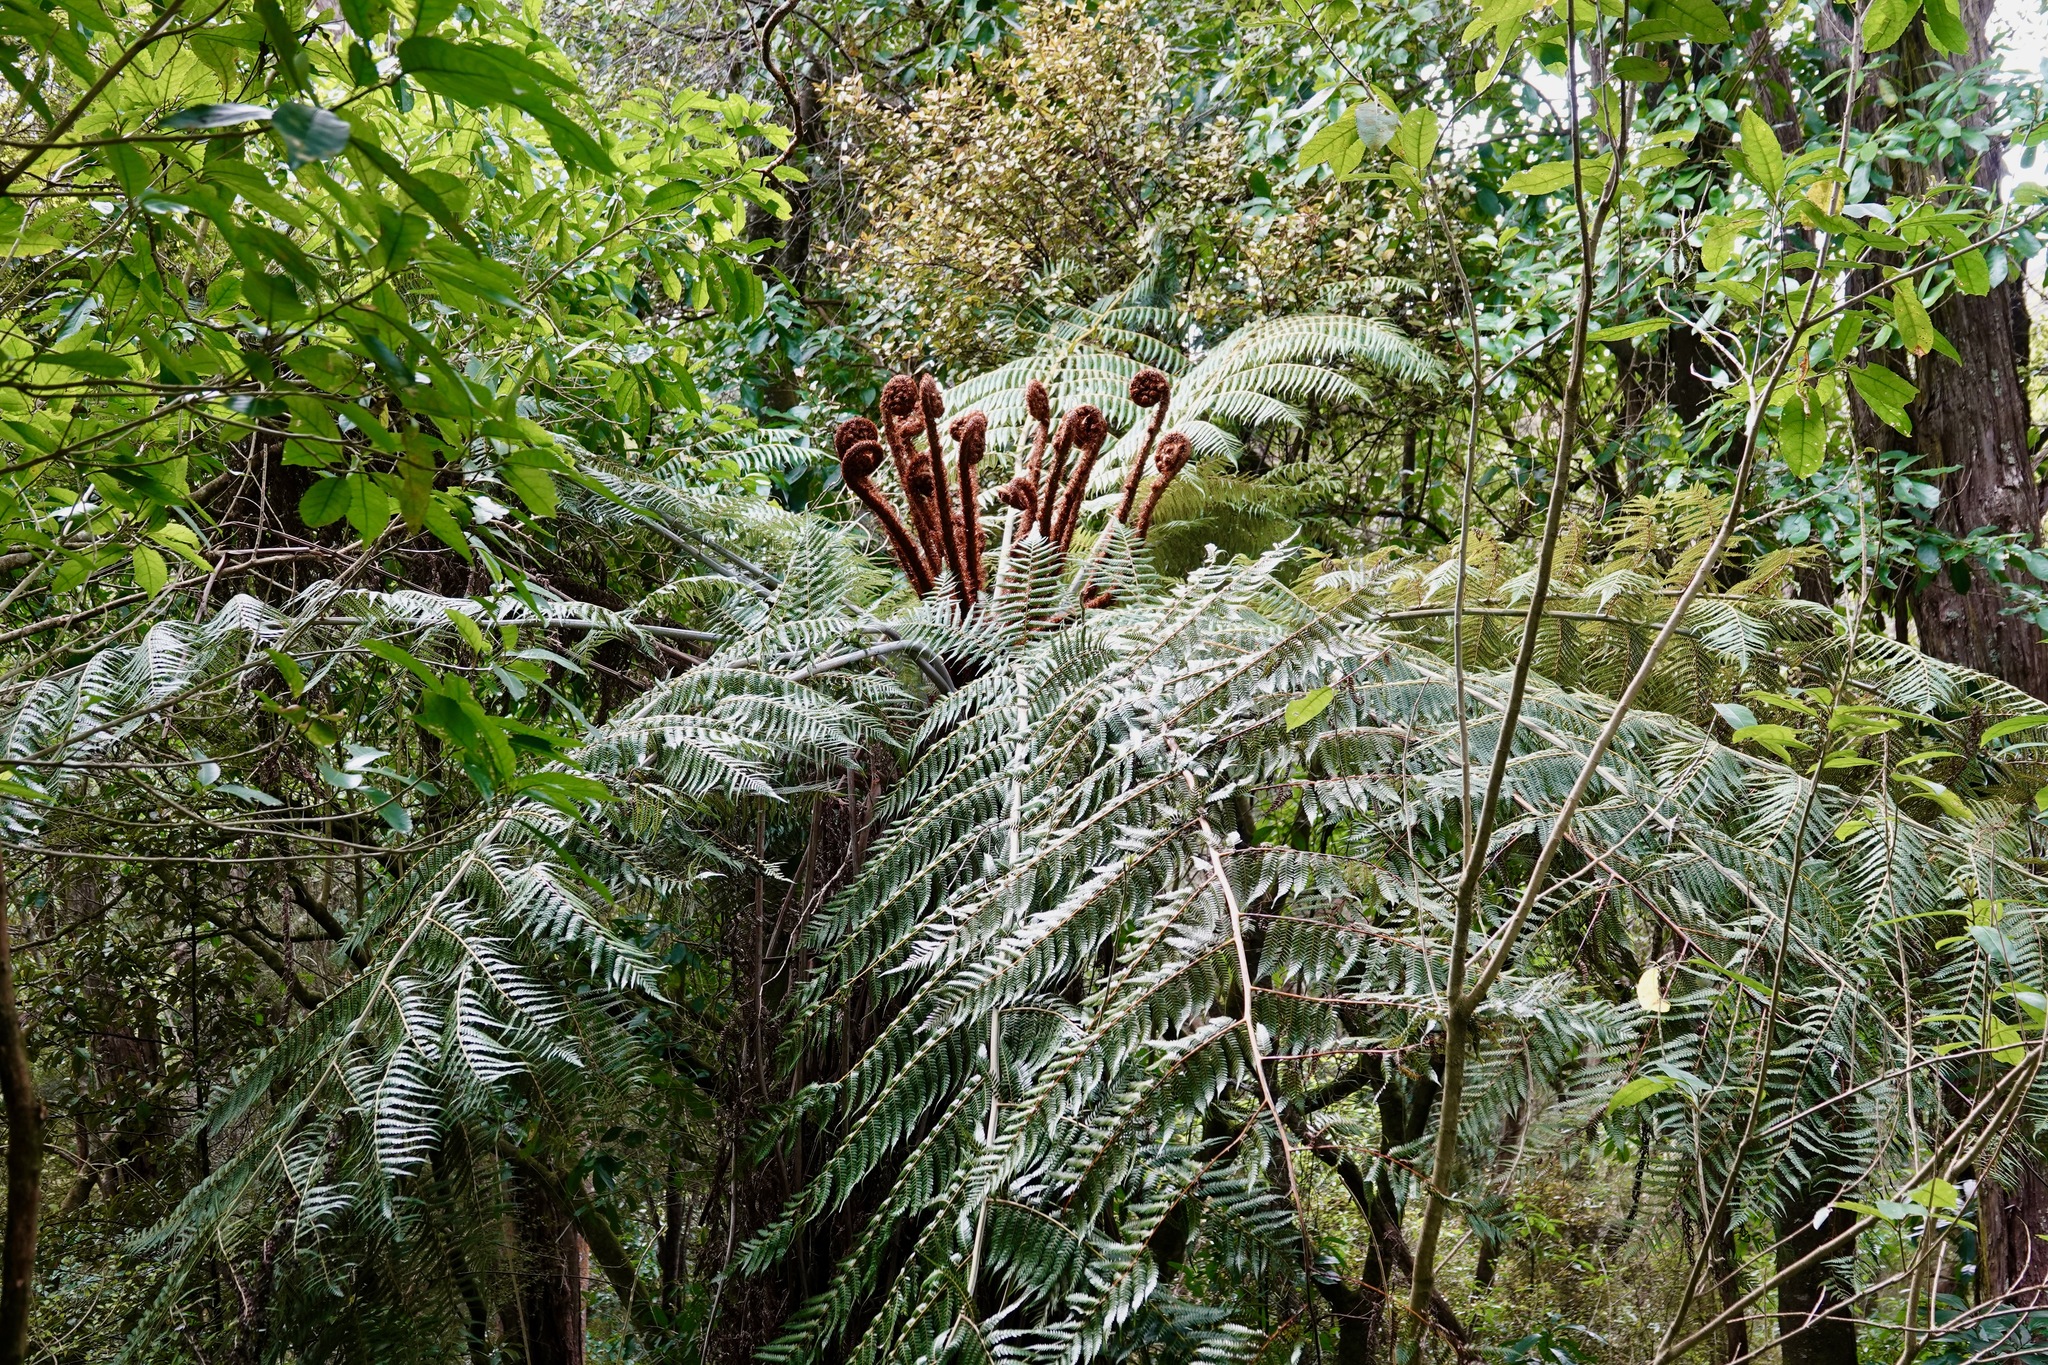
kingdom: Plantae
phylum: Tracheophyta
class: Polypodiopsida
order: Cyatheales
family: Cyatheaceae
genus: Alsophila
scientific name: Alsophila dealbata
